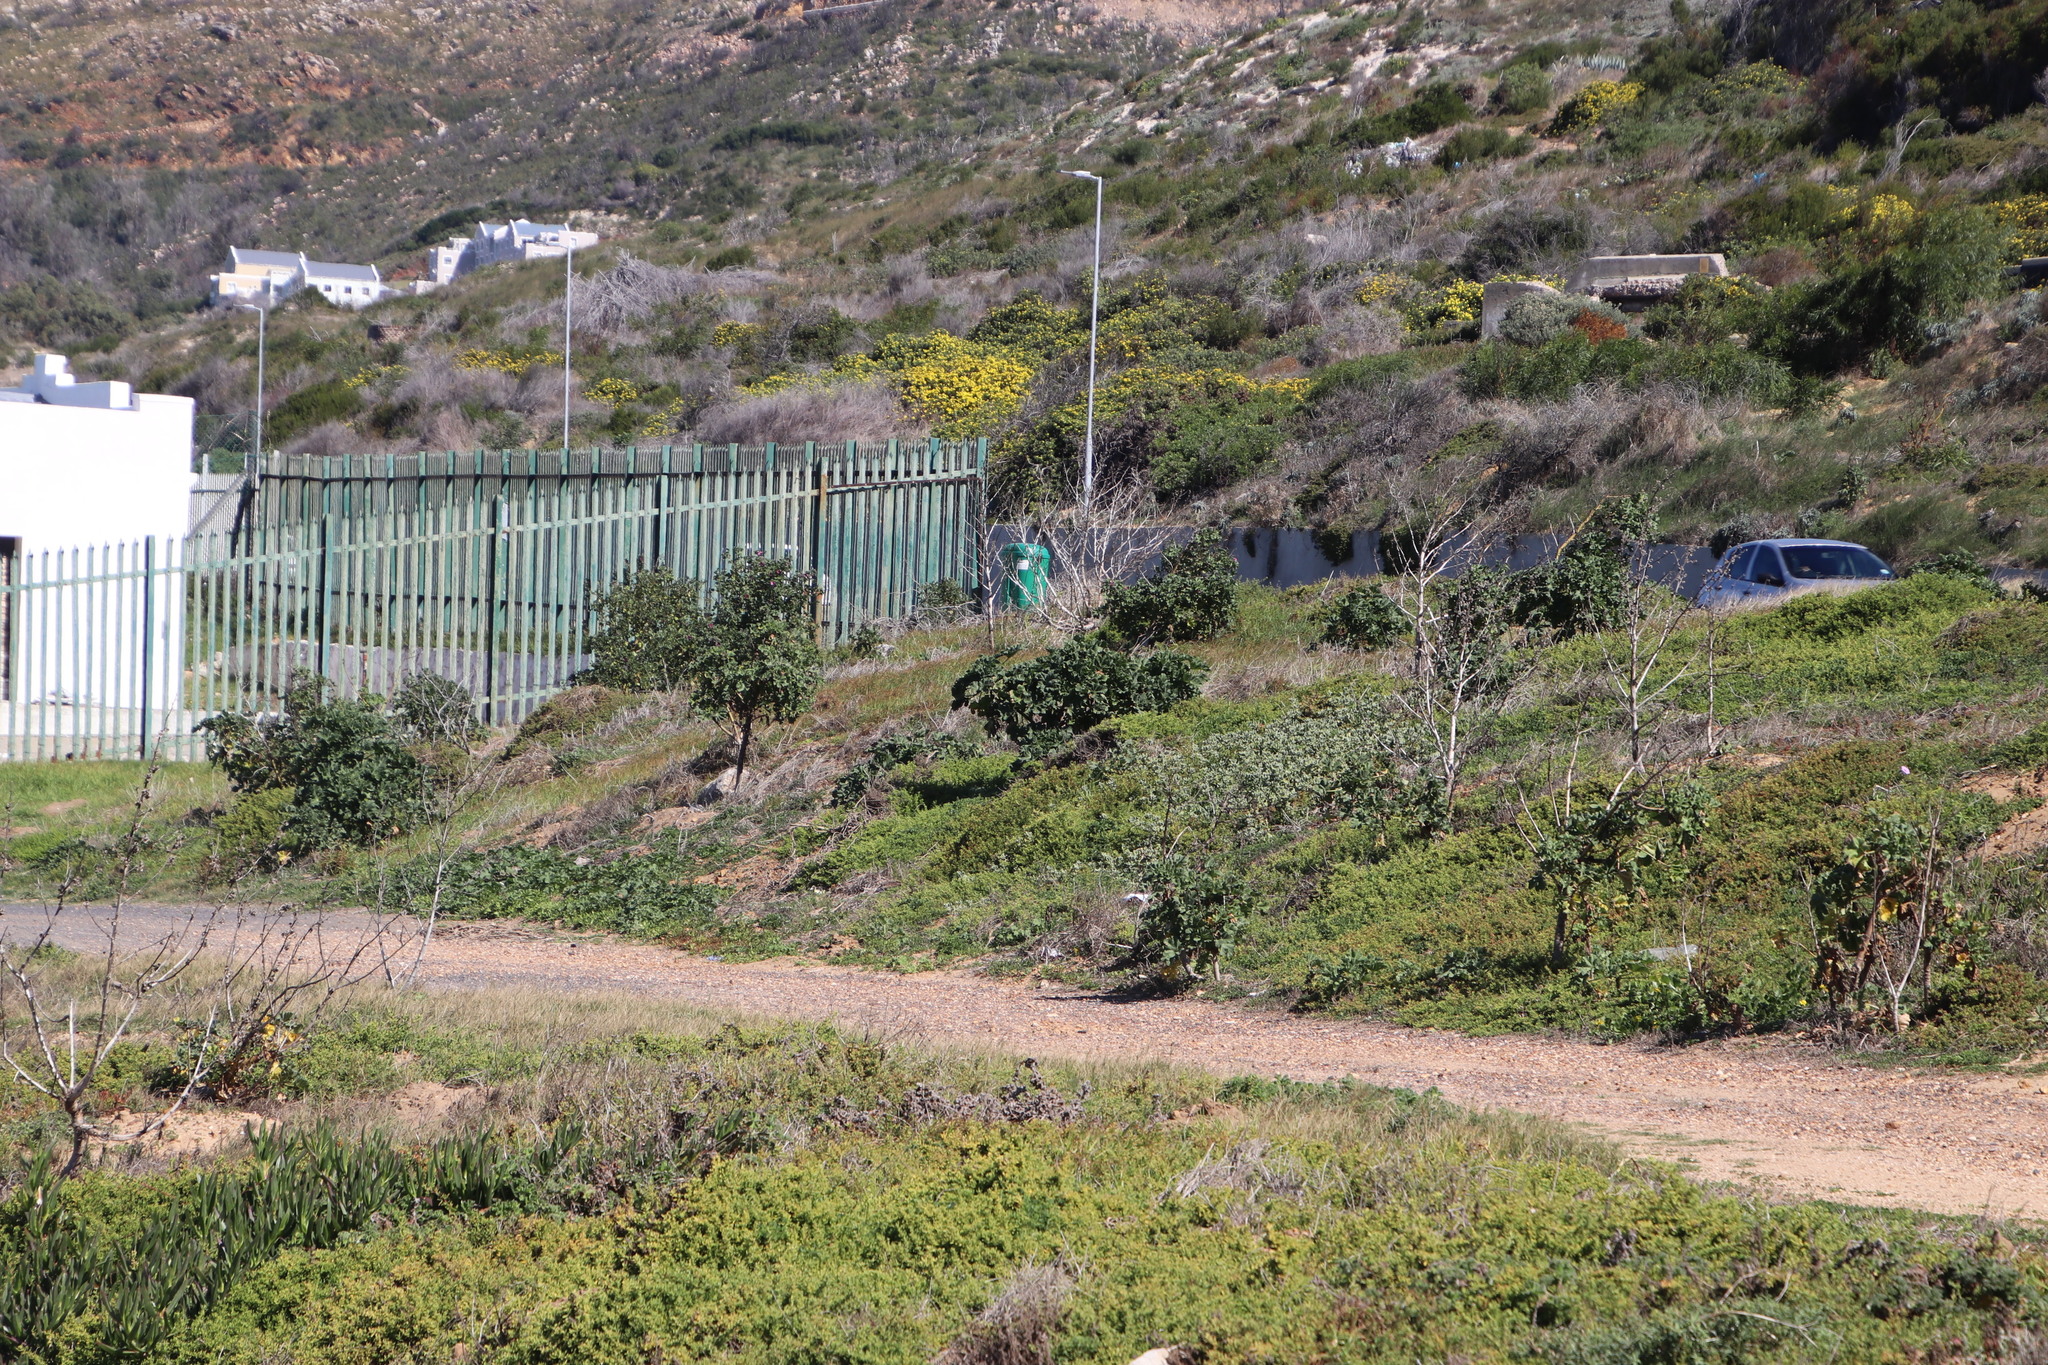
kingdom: Plantae
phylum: Tracheophyta
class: Magnoliopsida
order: Malvales
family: Malvaceae
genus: Malva
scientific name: Malva arborea
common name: Tree mallow
